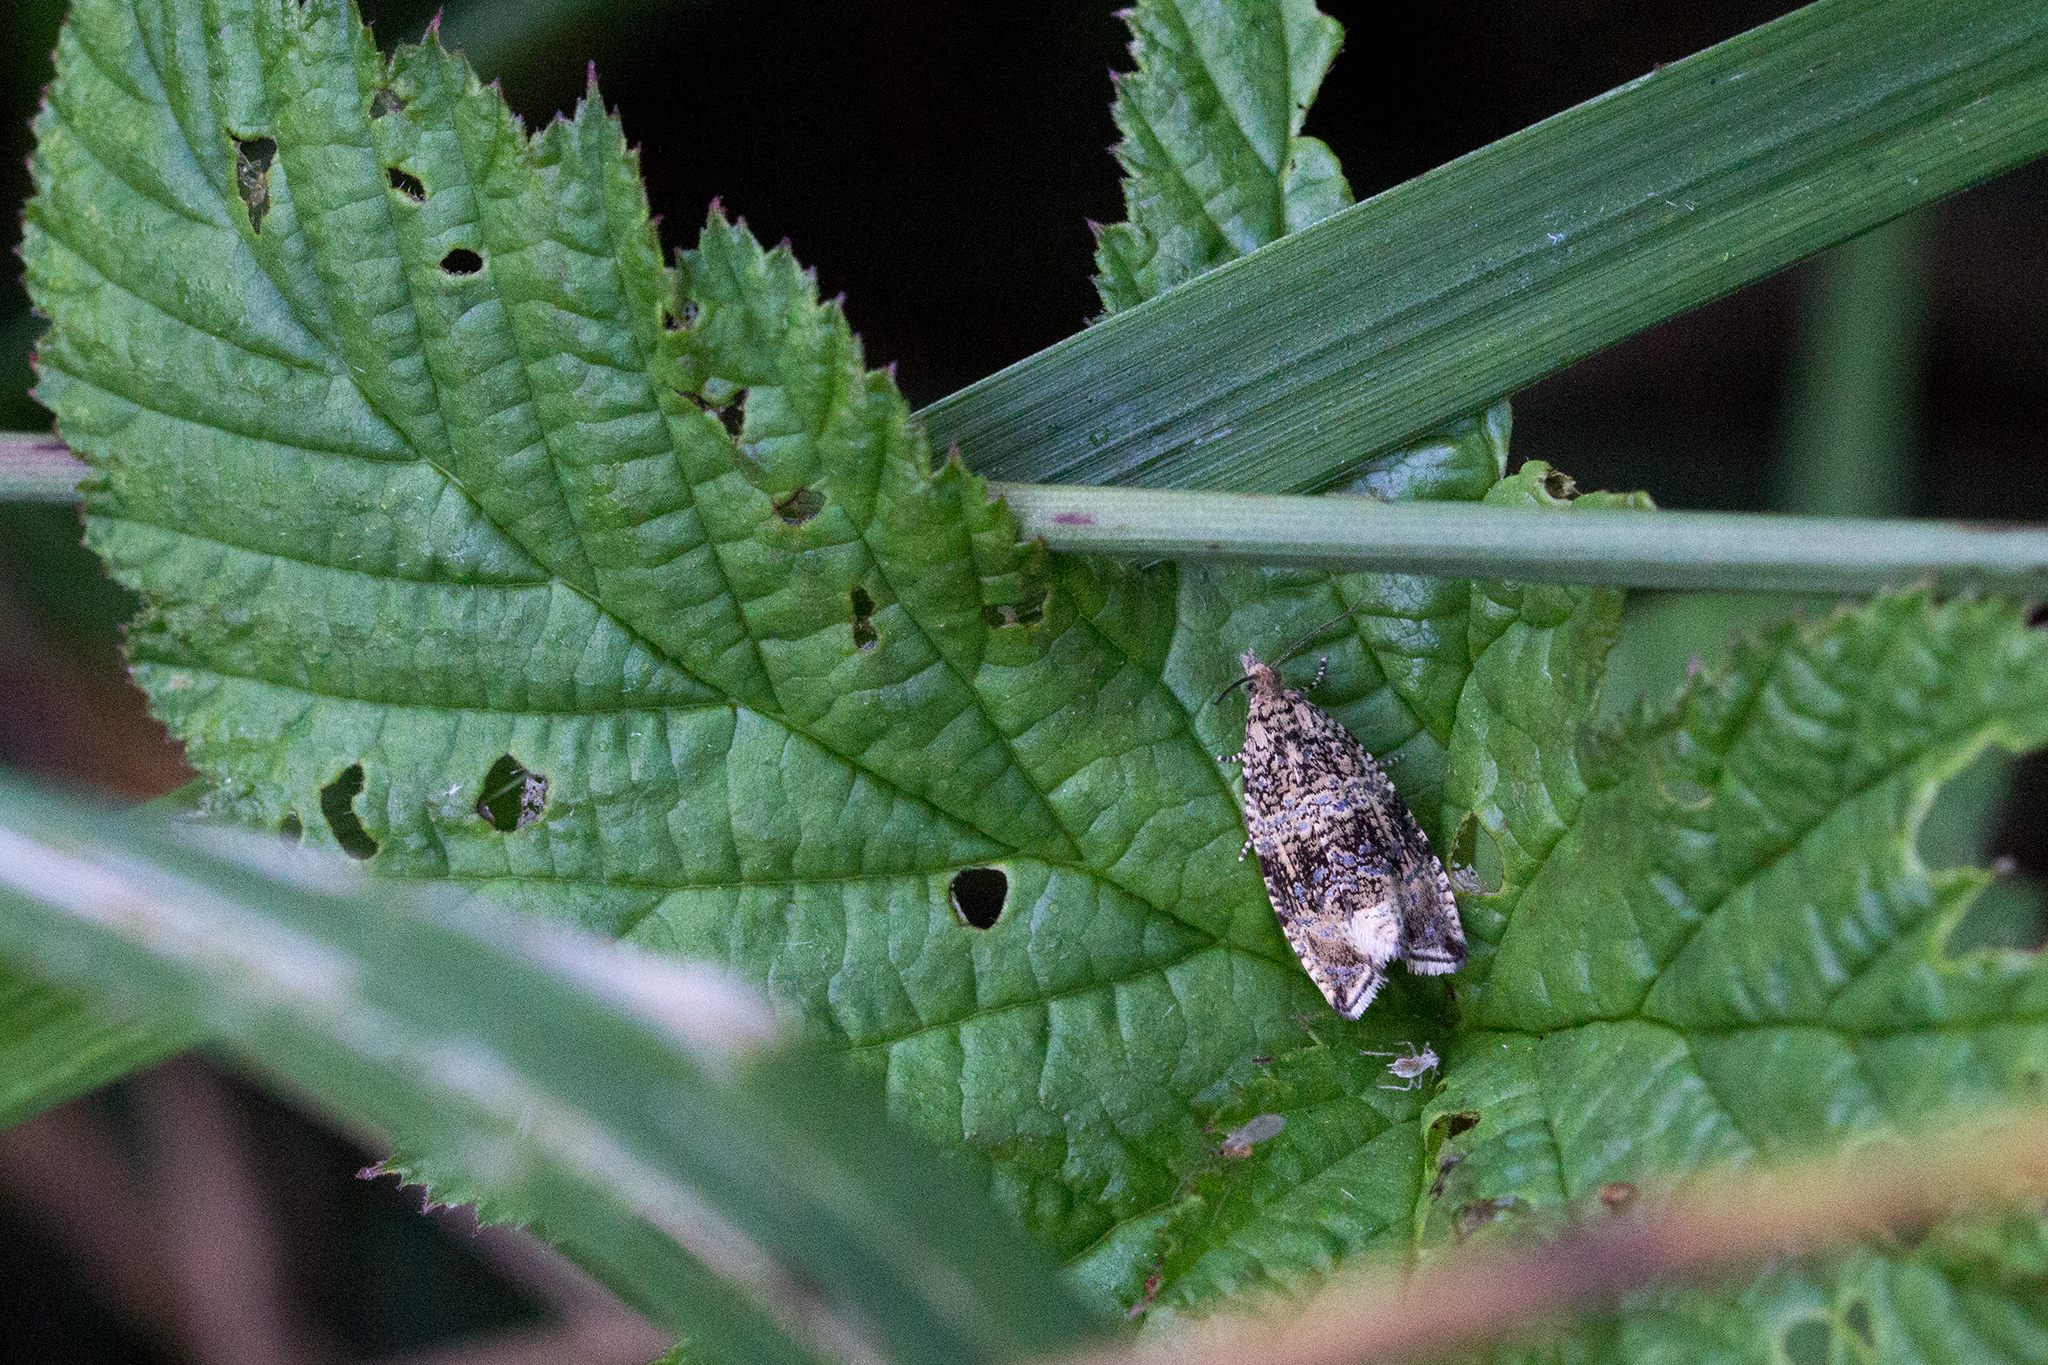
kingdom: Animalia
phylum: Arthropoda
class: Insecta
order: Lepidoptera
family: Tortricidae
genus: Syricoris
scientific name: Syricoris lacunana
